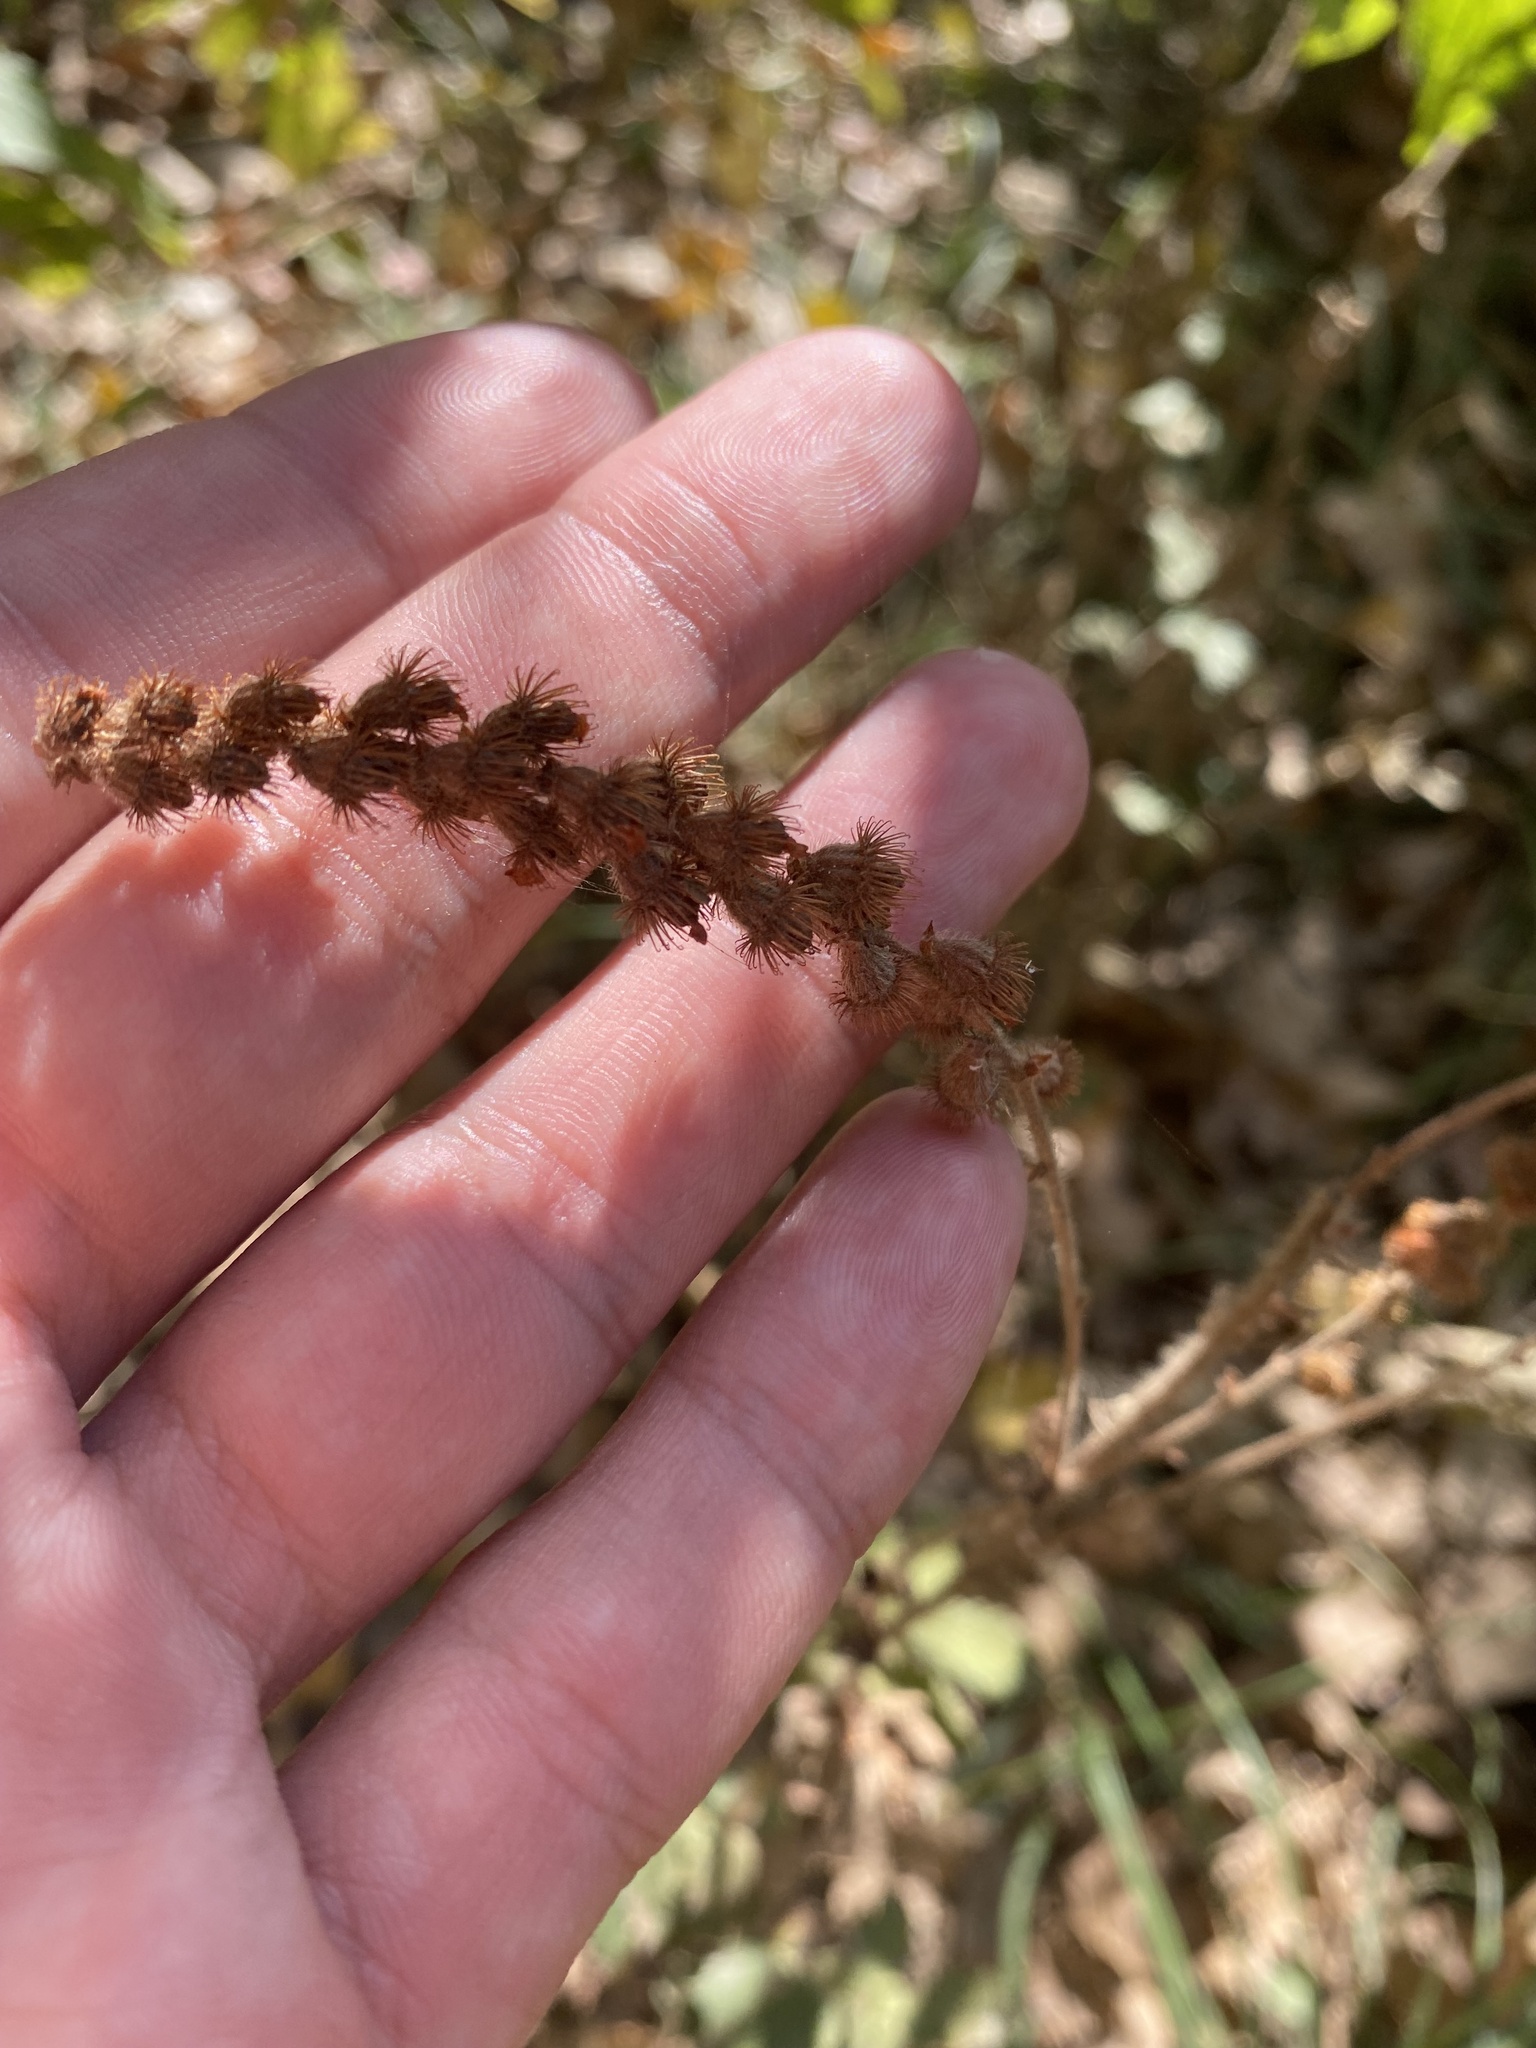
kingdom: Plantae
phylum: Tracheophyta
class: Magnoliopsida
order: Rosales
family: Rosaceae
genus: Agrimonia
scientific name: Agrimonia eupatoria
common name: Agrimony
